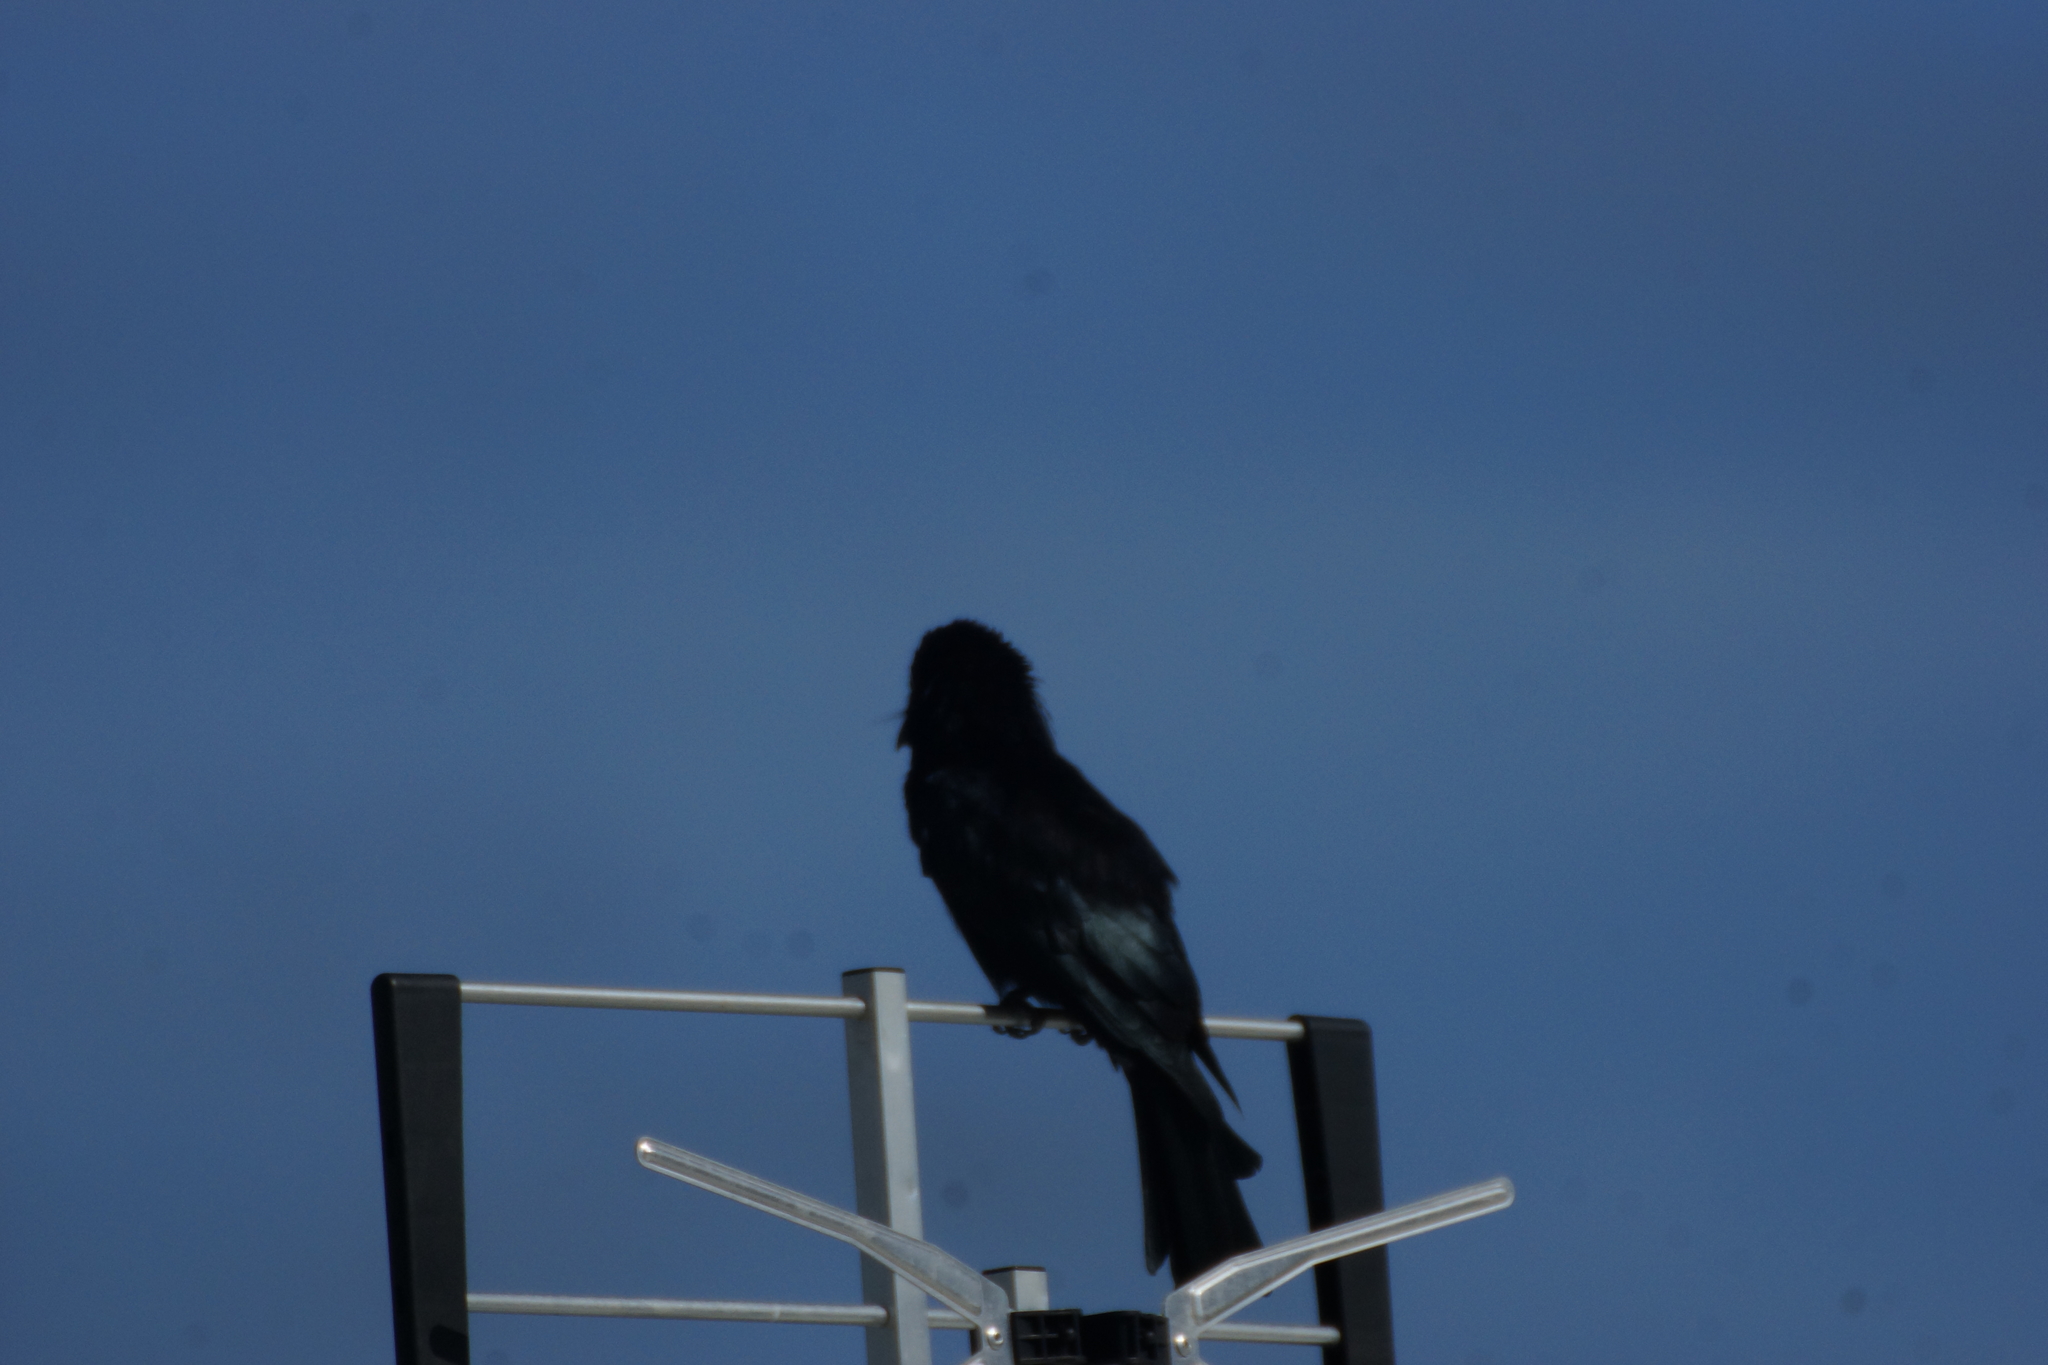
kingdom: Animalia
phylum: Chordata
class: Aves
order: Passeriformes
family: Dicruridae
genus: Dicrurus
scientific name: Dicrurus bracteatus
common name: Spangled drongo
